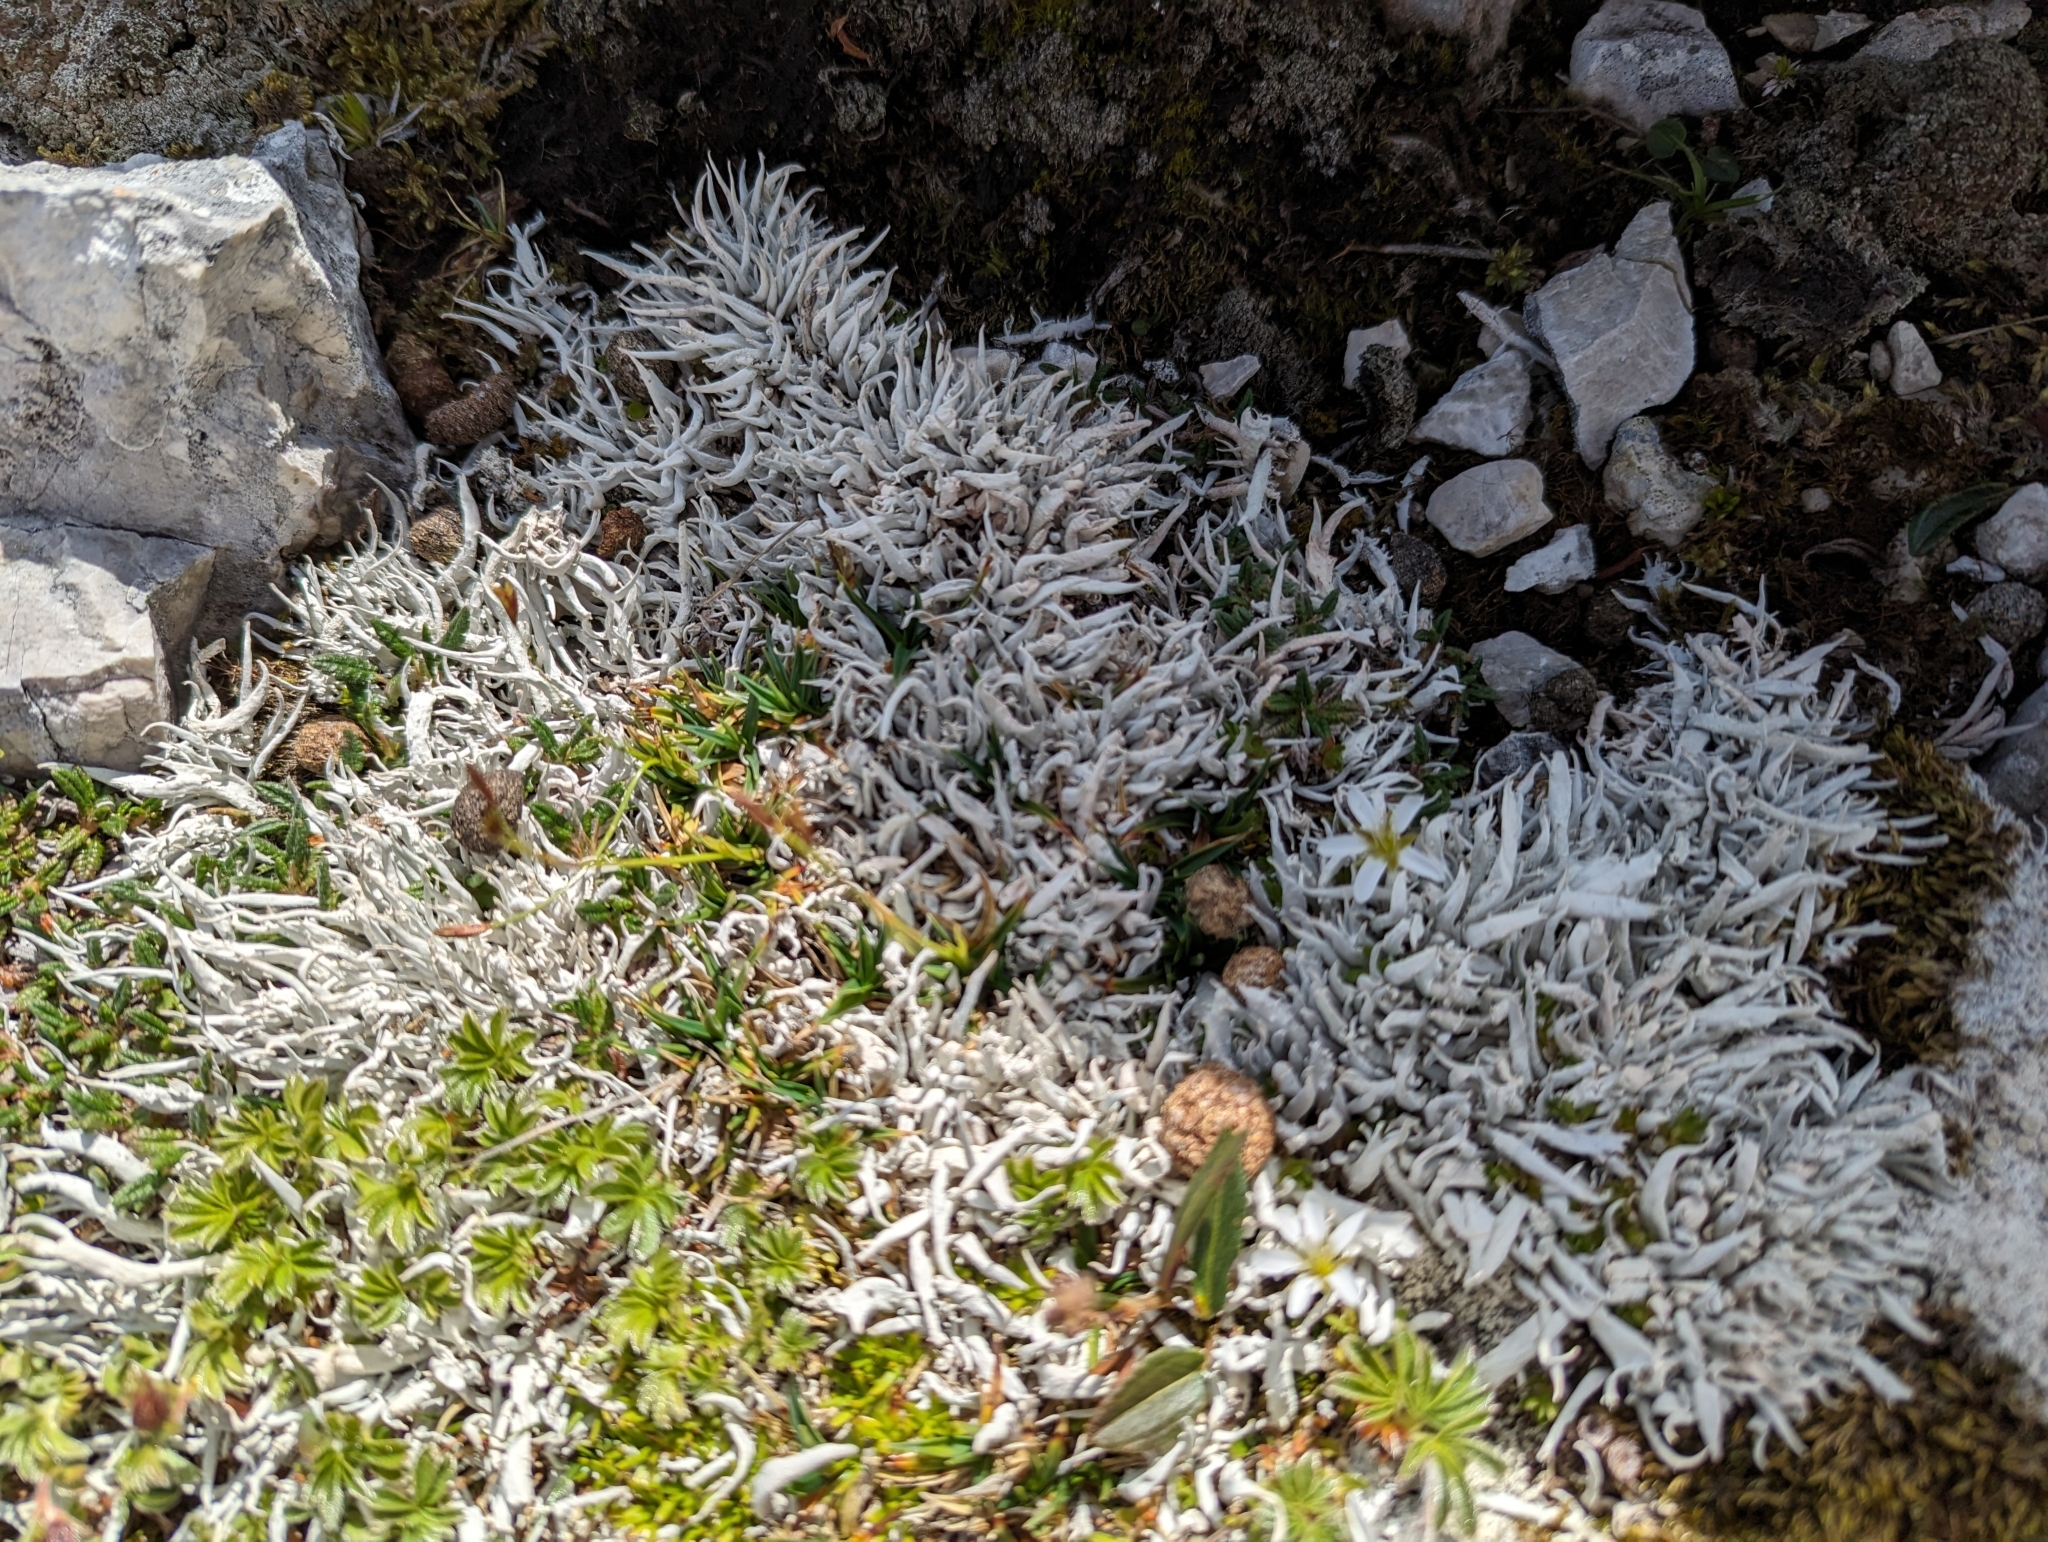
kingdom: Fungi
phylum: Ascomycota
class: Lecanoromycetes
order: Pertusariales
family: Icmadophilaceae
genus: Thamnolia
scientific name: Thamnolia vermicularis
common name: Whiteworm lichen
